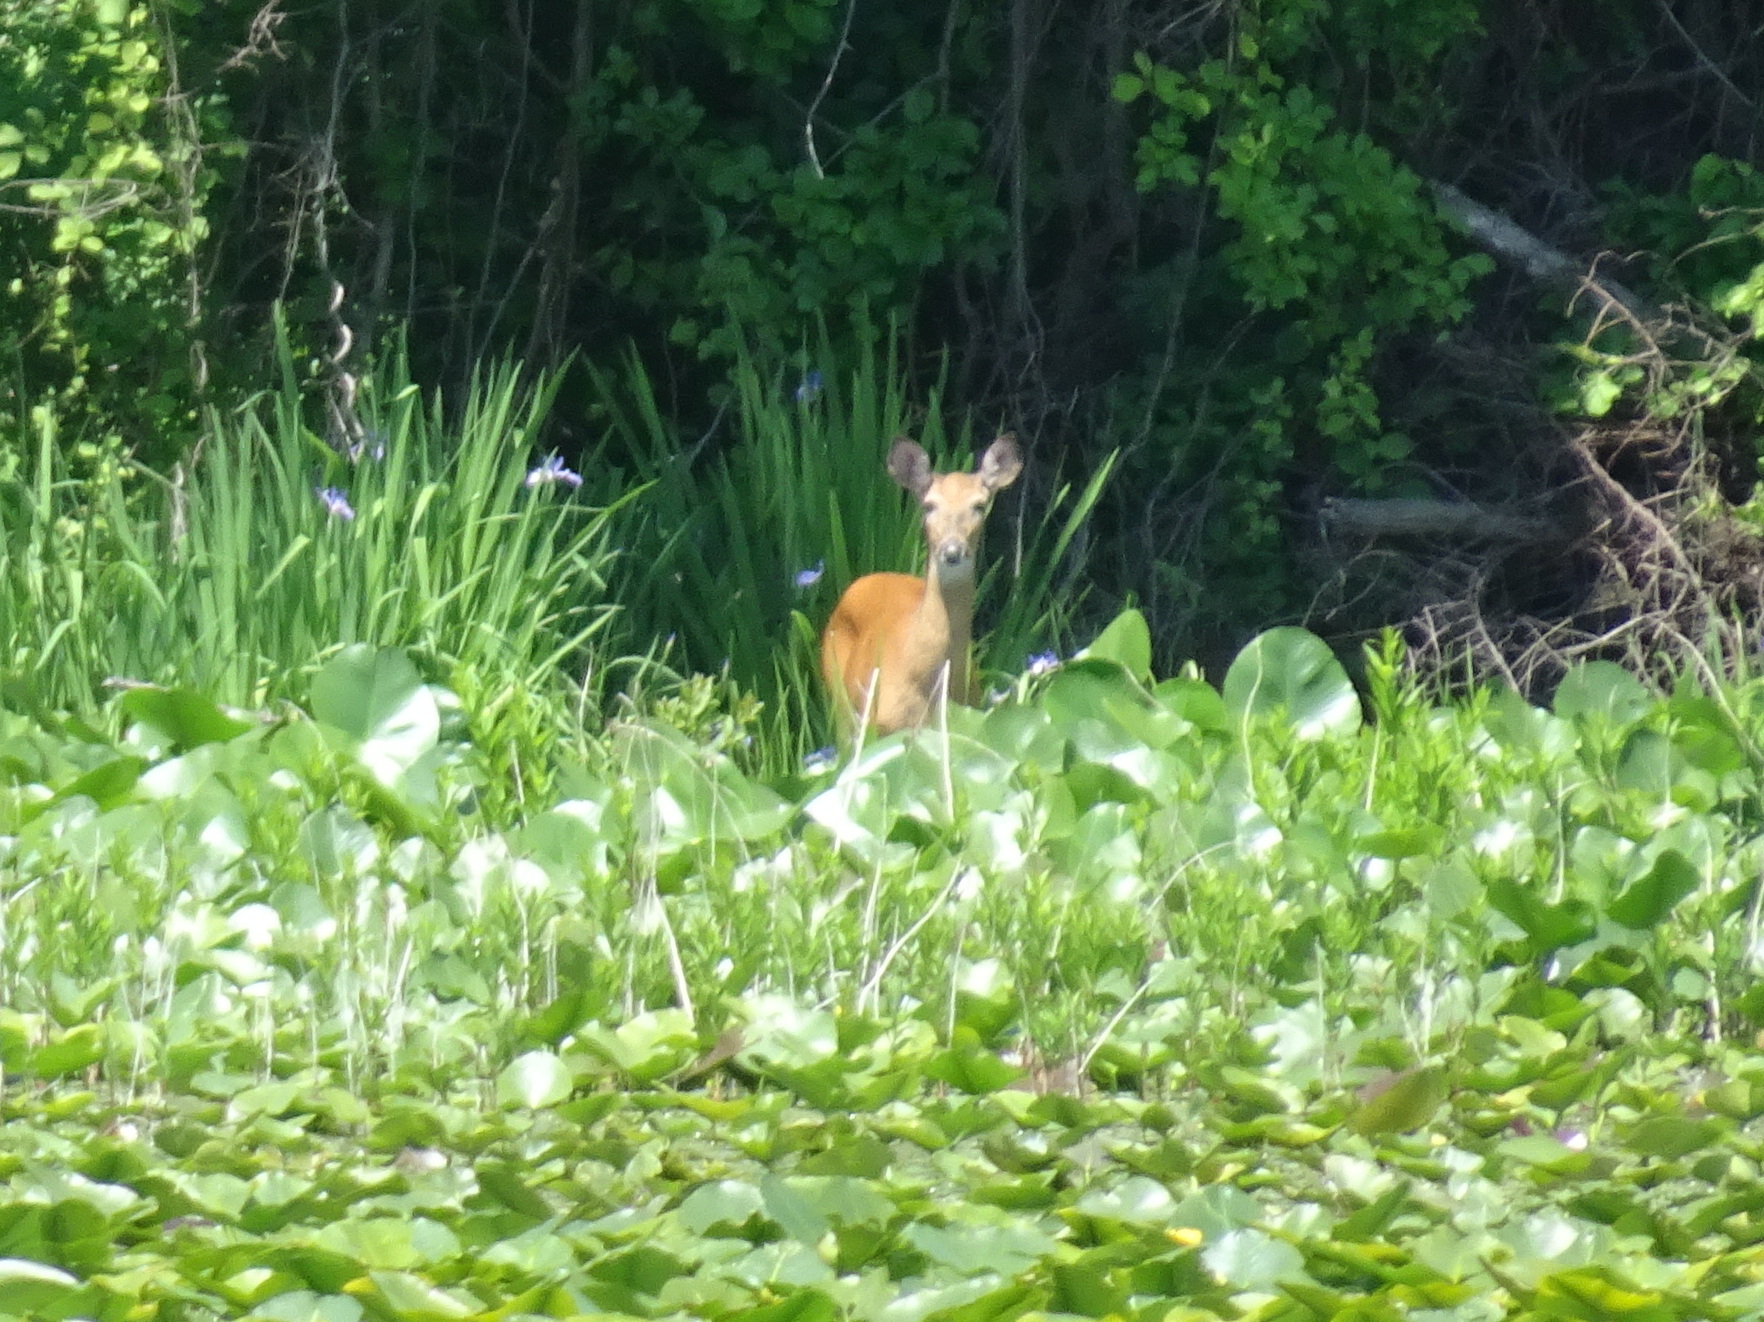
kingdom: Animalia
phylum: Chordata
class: Mammalia
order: Artiodactyla
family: Cervidae
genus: Odocoileus
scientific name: Odocoileus virginianus
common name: White-tailed deer
